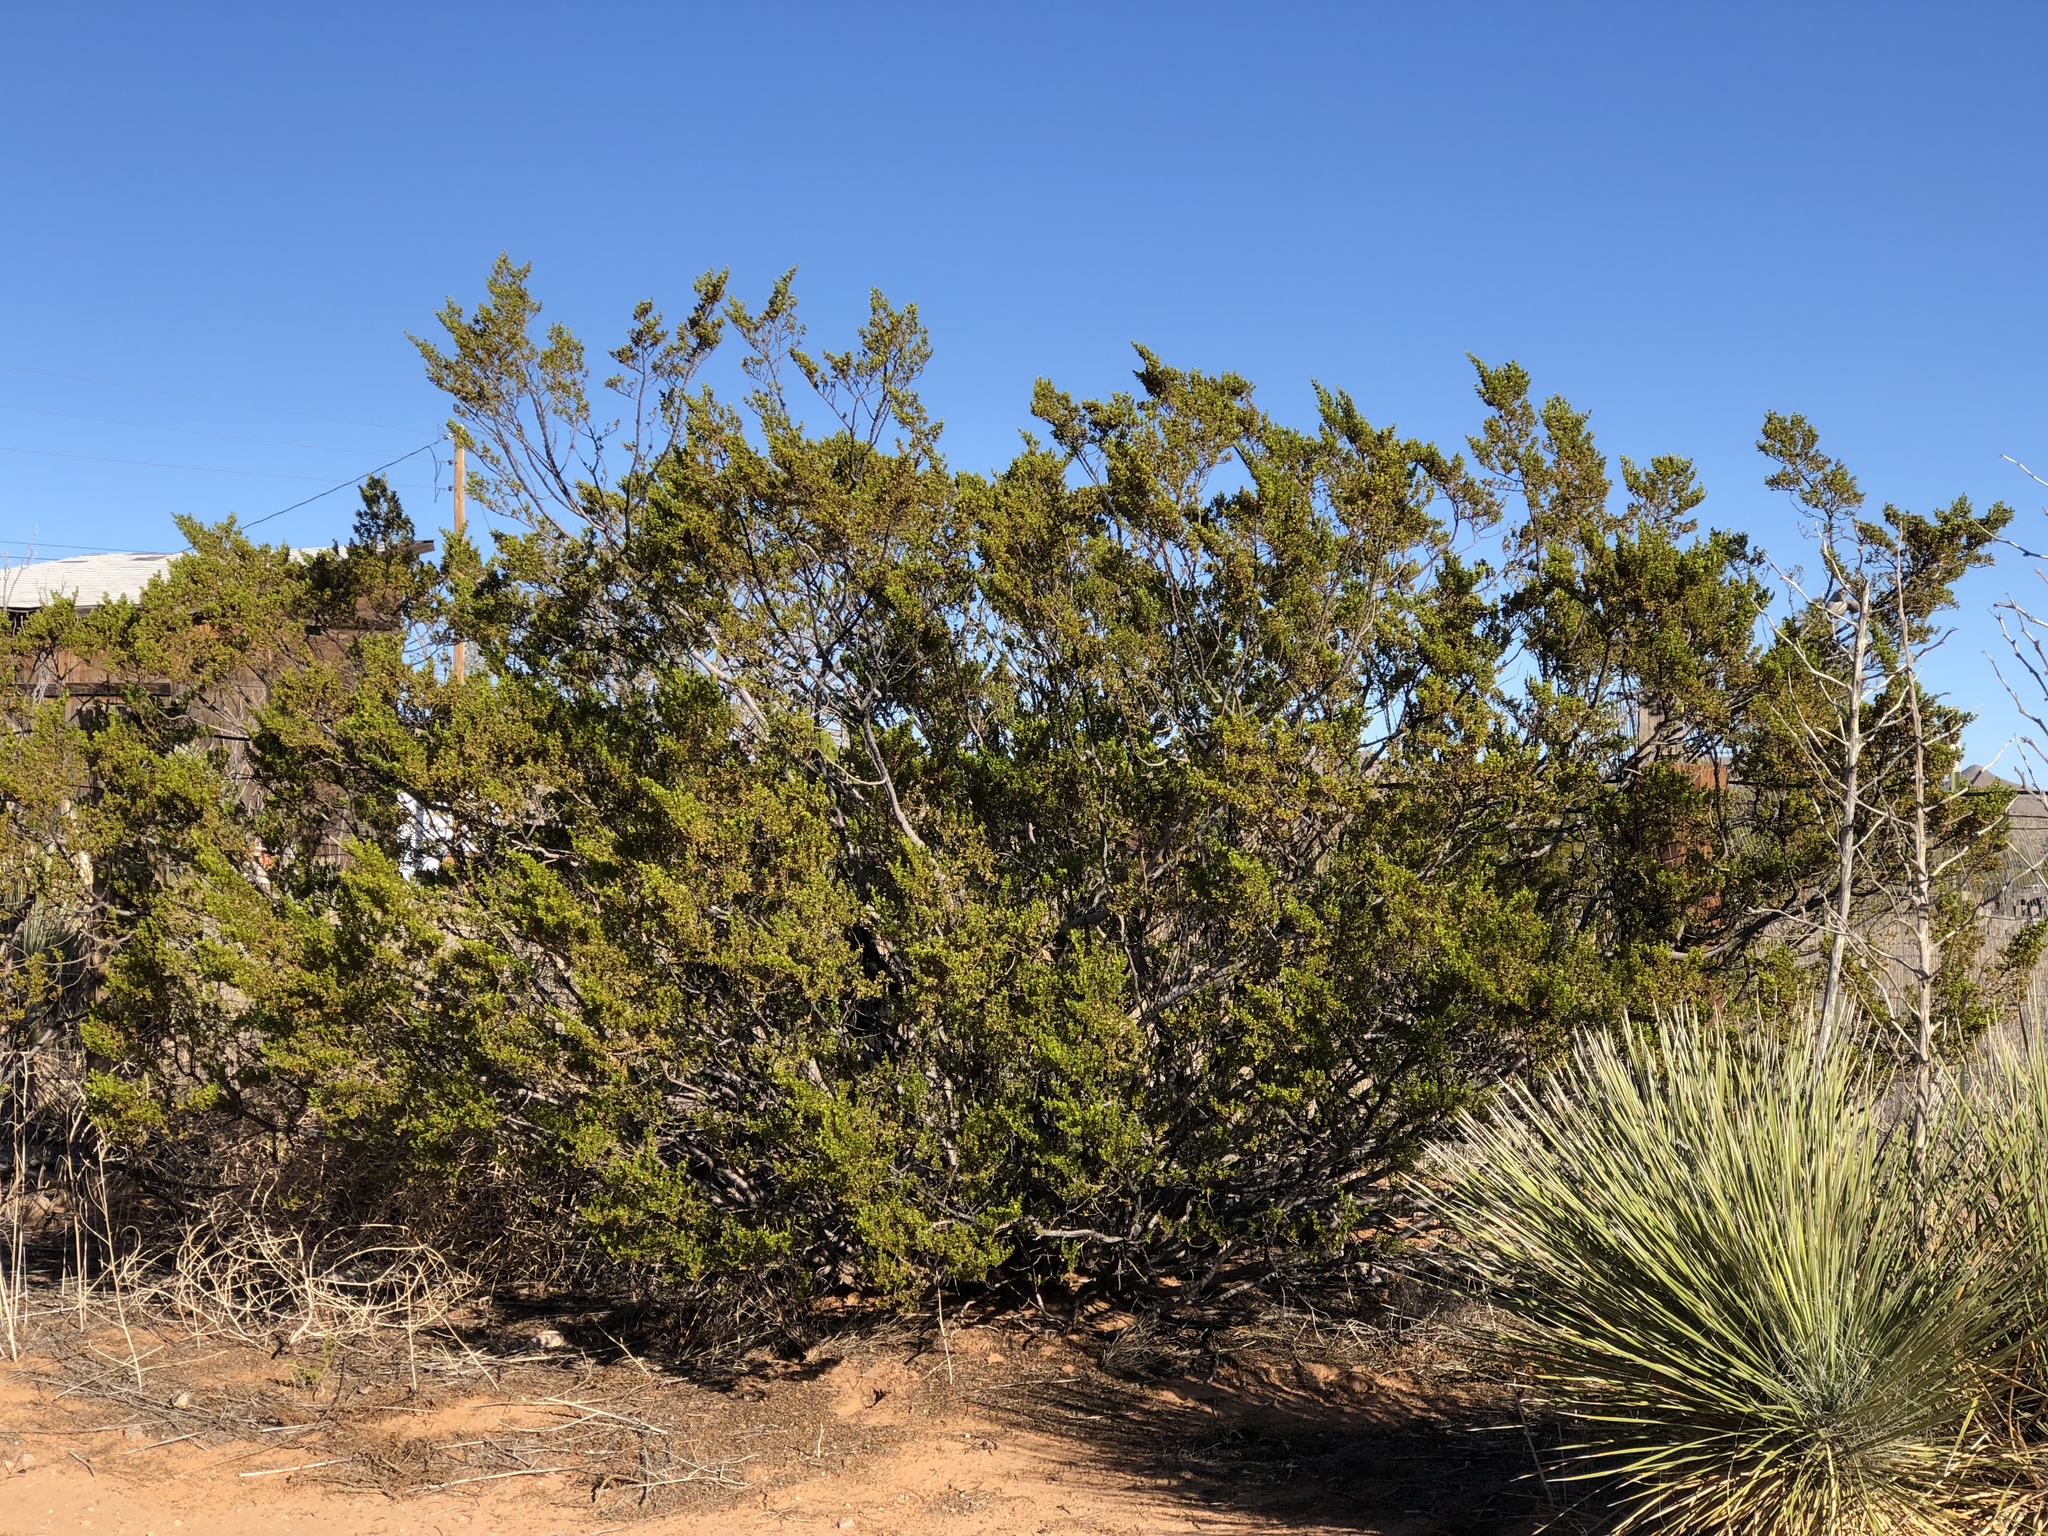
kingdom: Plantae
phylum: Tracheophyta
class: Magnoliopsida
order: Zygophyllales
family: Zygophyllaceae
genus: Larrea
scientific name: Larrea tridentata
